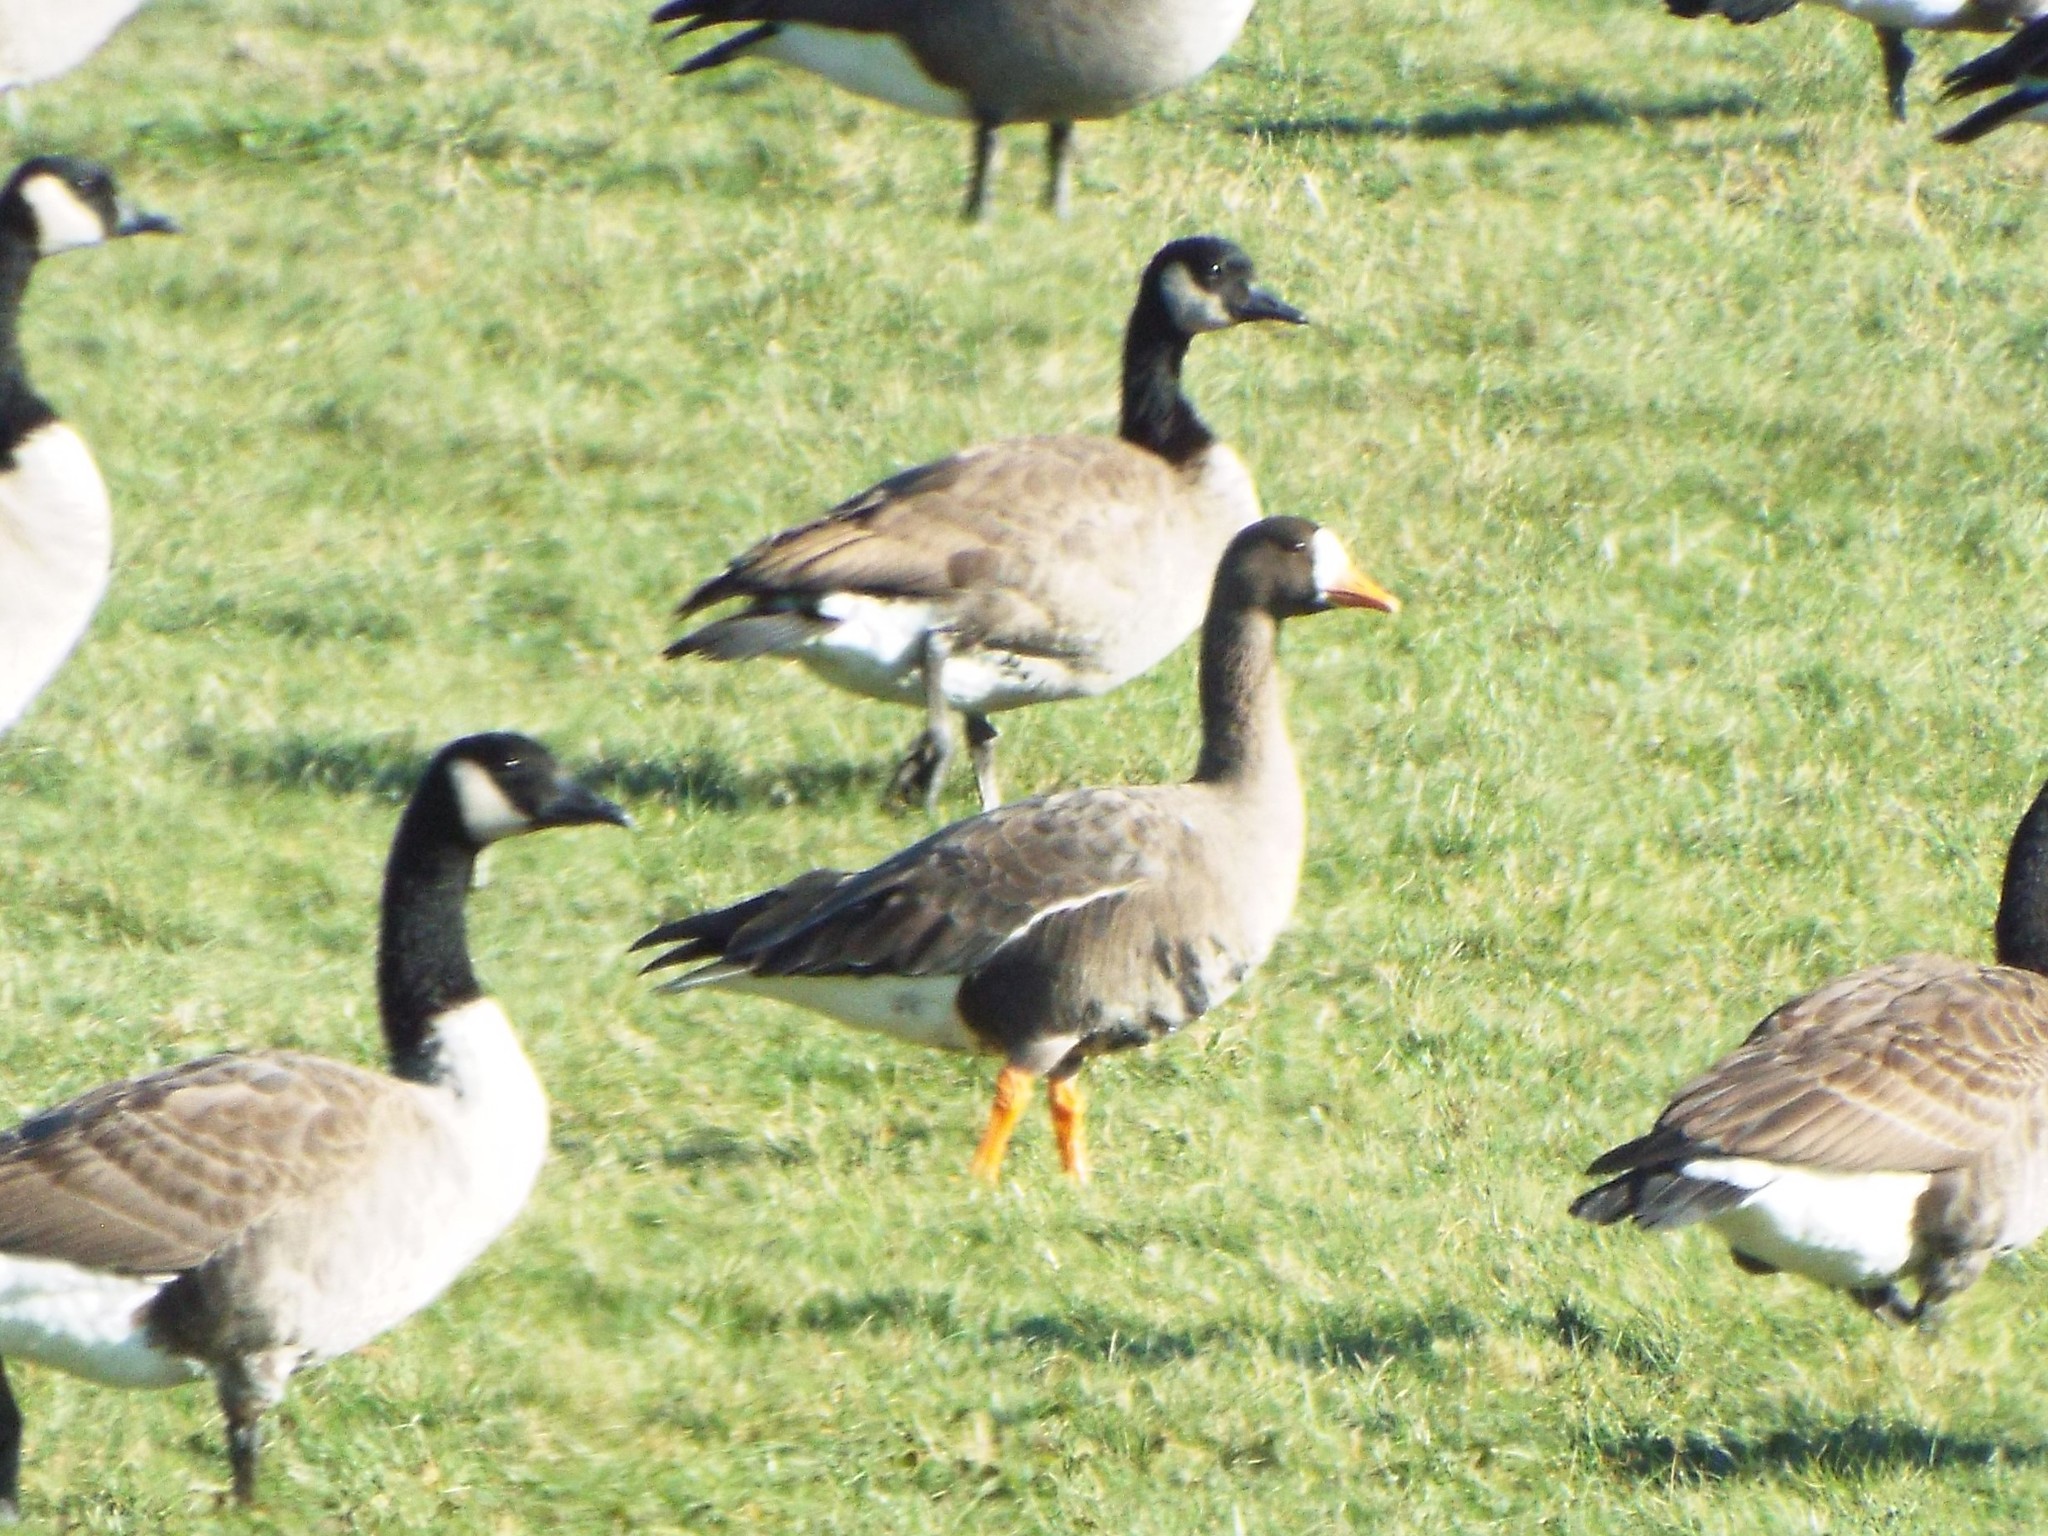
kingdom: Animalia
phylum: Chordata
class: Aves
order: Anseriformes
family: Anatidae
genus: Anser
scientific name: Anser albifrons
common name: Greater white-fronted goose
